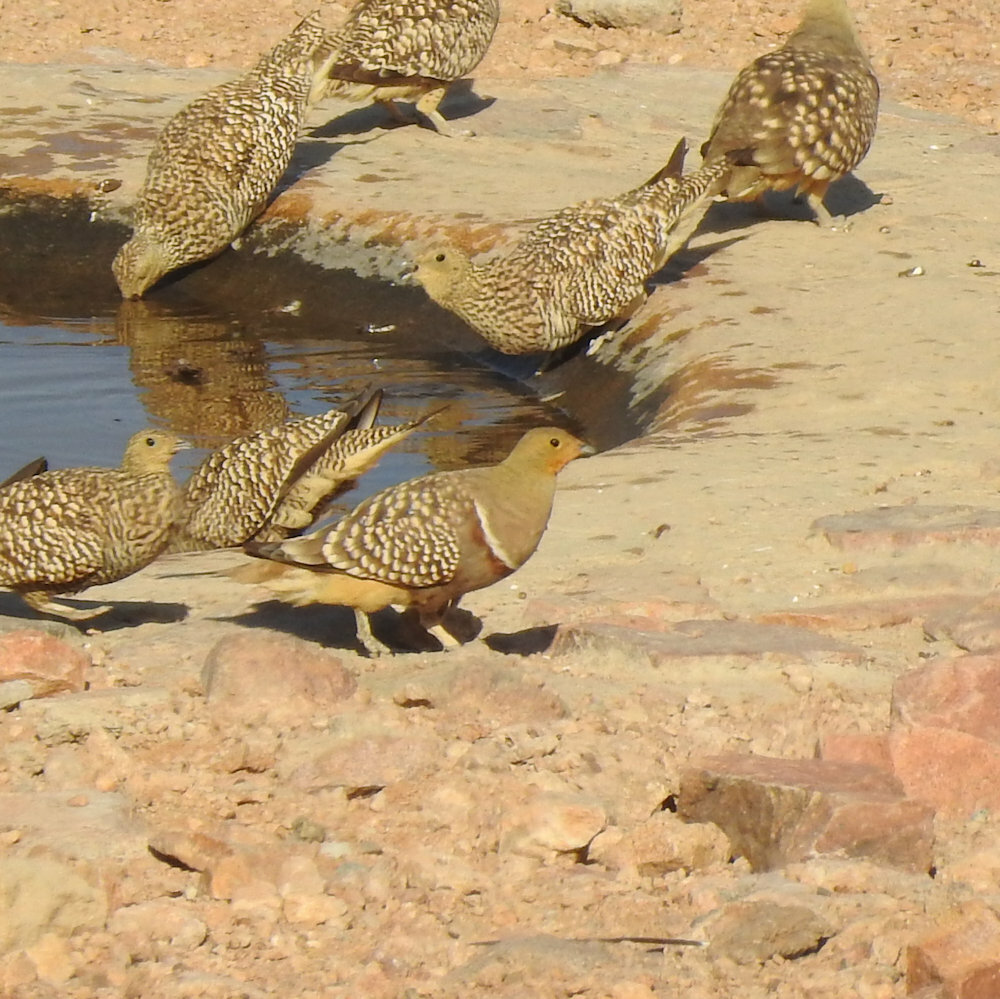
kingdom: Animalia
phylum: Chordata
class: Aves
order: Pteroclidiformes
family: Pteroclididae
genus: Pterocles
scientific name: Pterocles namaqua
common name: Namaqua sandgrouse
